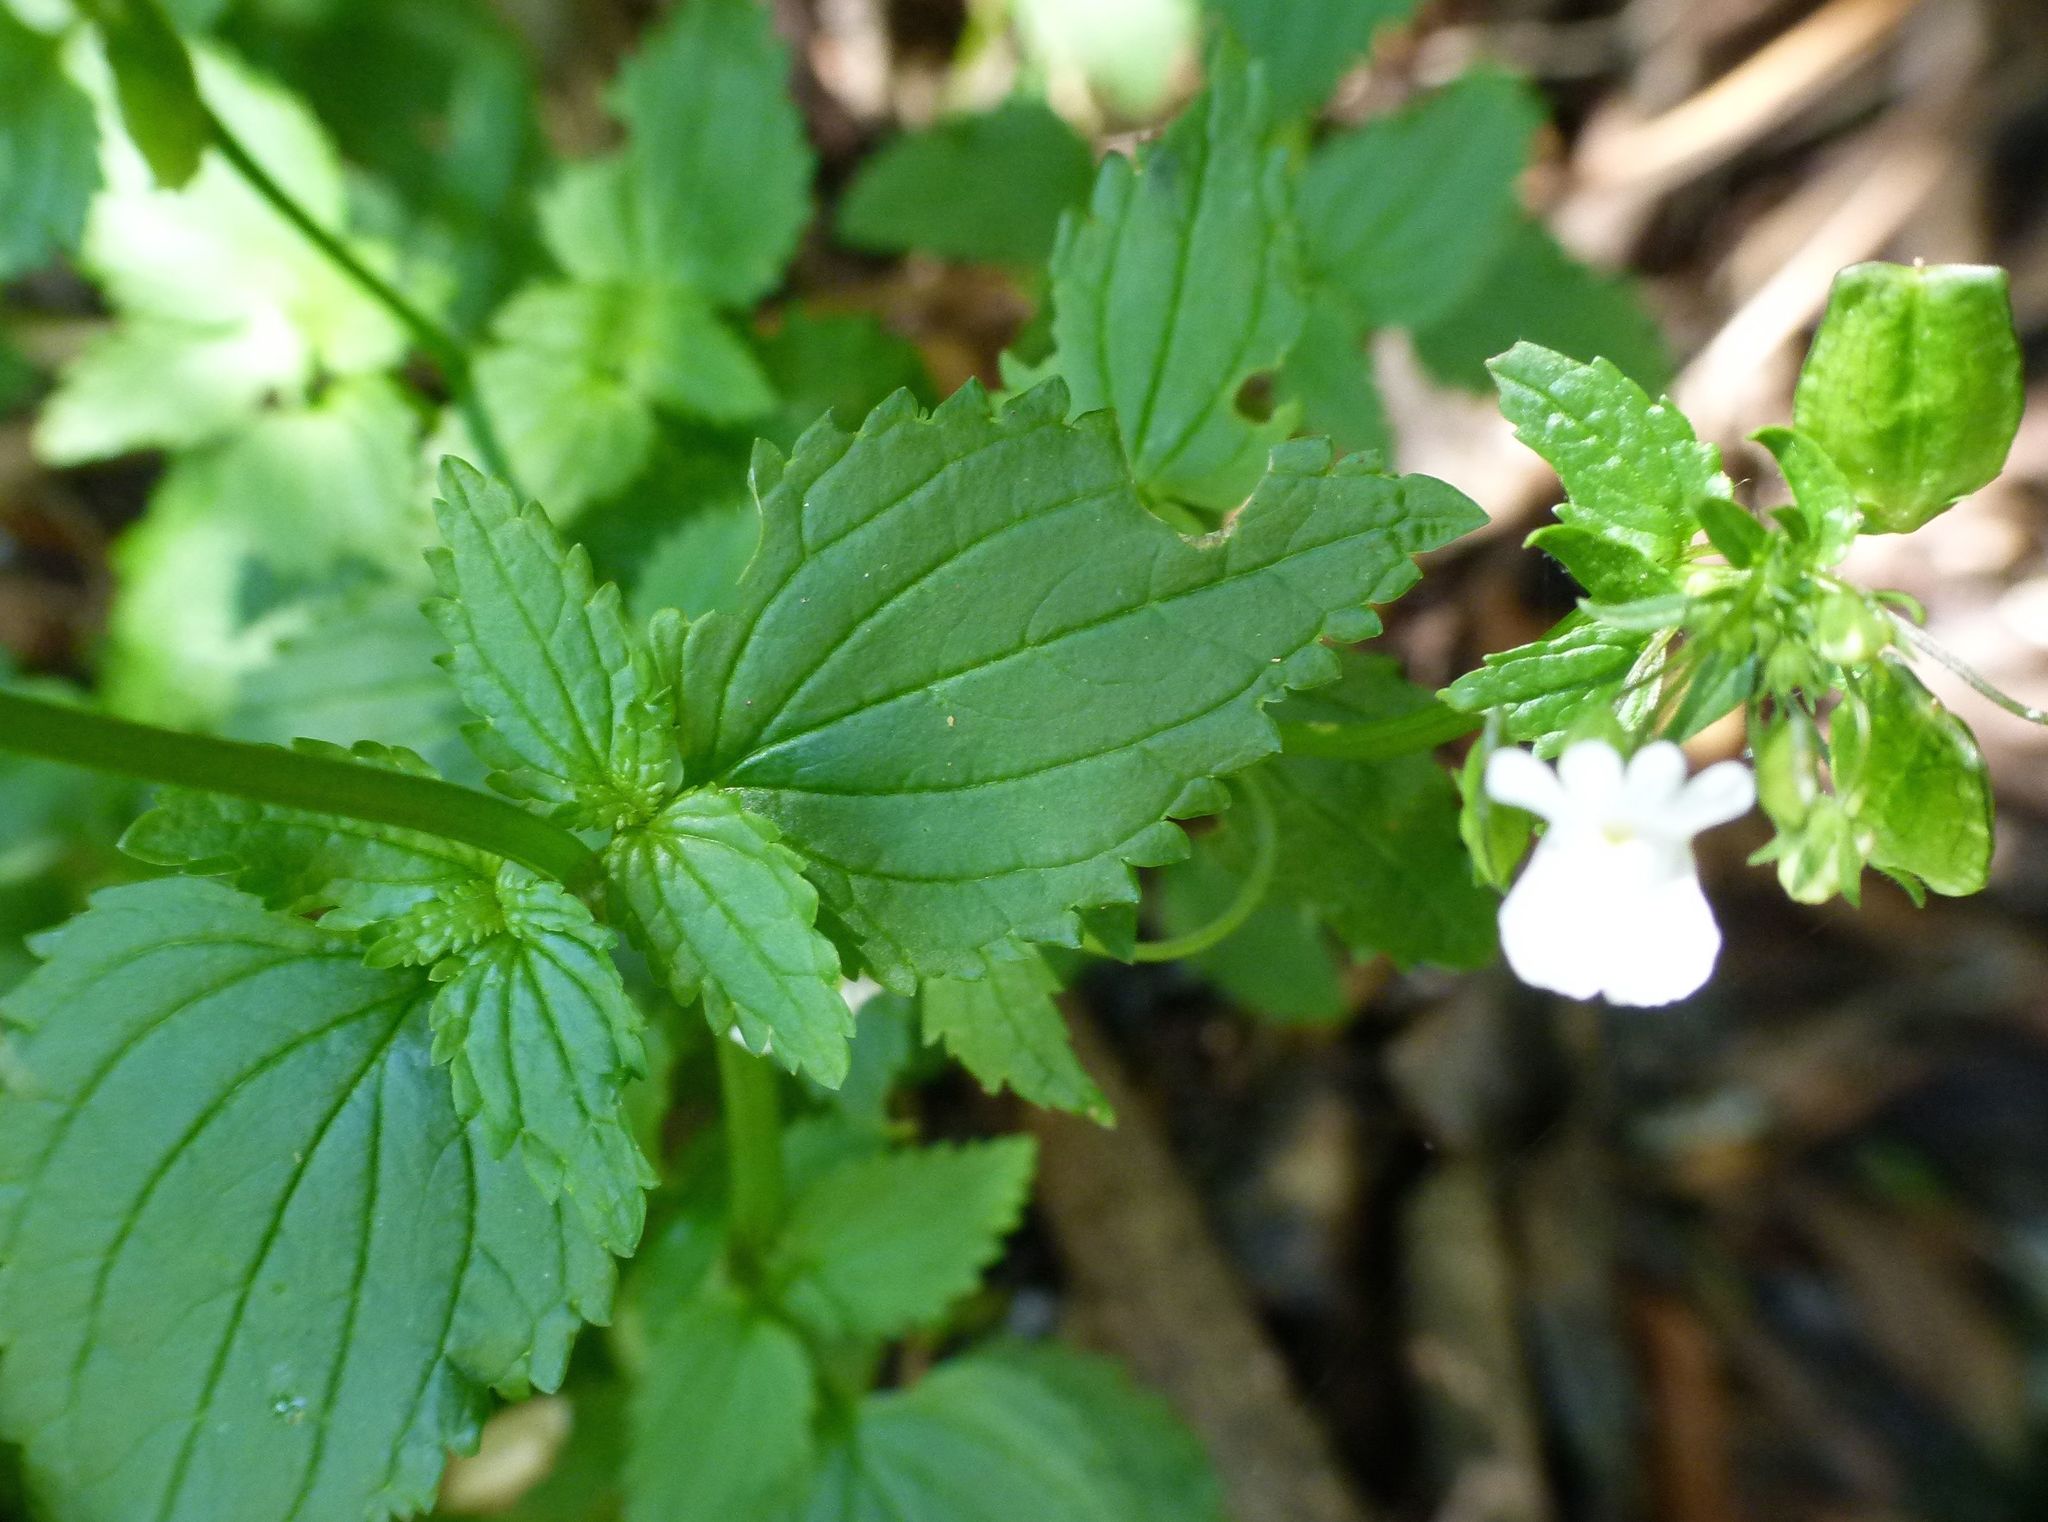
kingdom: Plantae
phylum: Tracheophyta
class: Magnoliopsida
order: Lamiales
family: Scrophulariaceae
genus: Nemesia
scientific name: Nemesia floribunda
